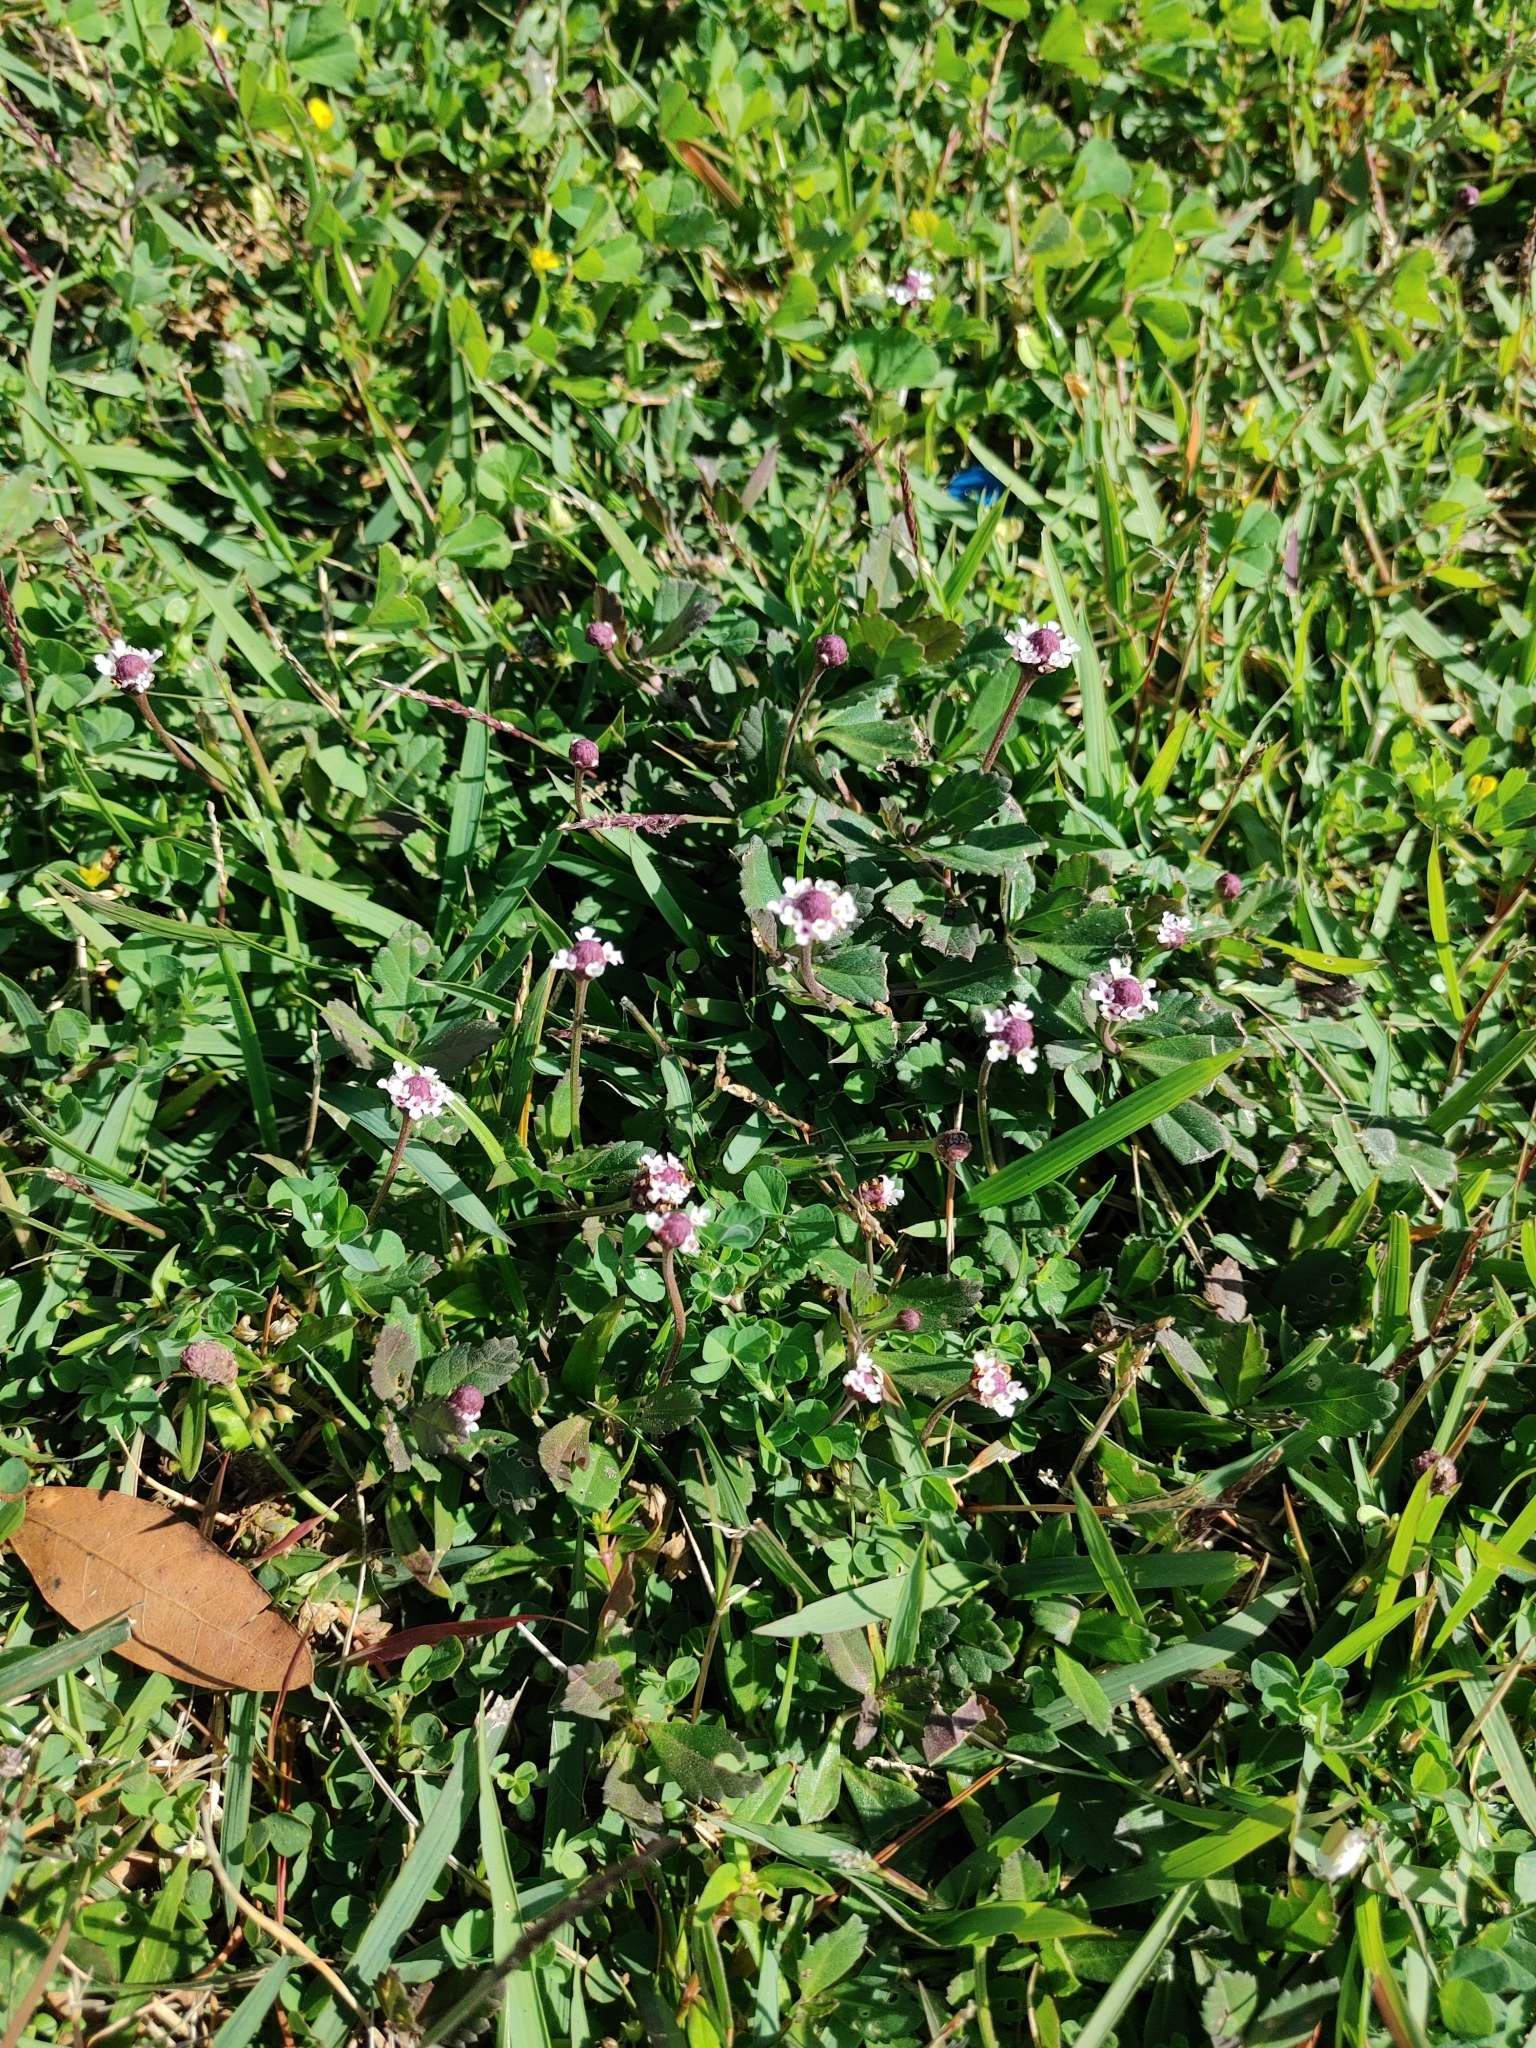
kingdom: Plantae
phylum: Tracheophyta
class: Magnoliopsida
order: Lamiales
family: Verbenaceae
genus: Phyla
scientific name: Phyla nodiflora
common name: Frogfruit
